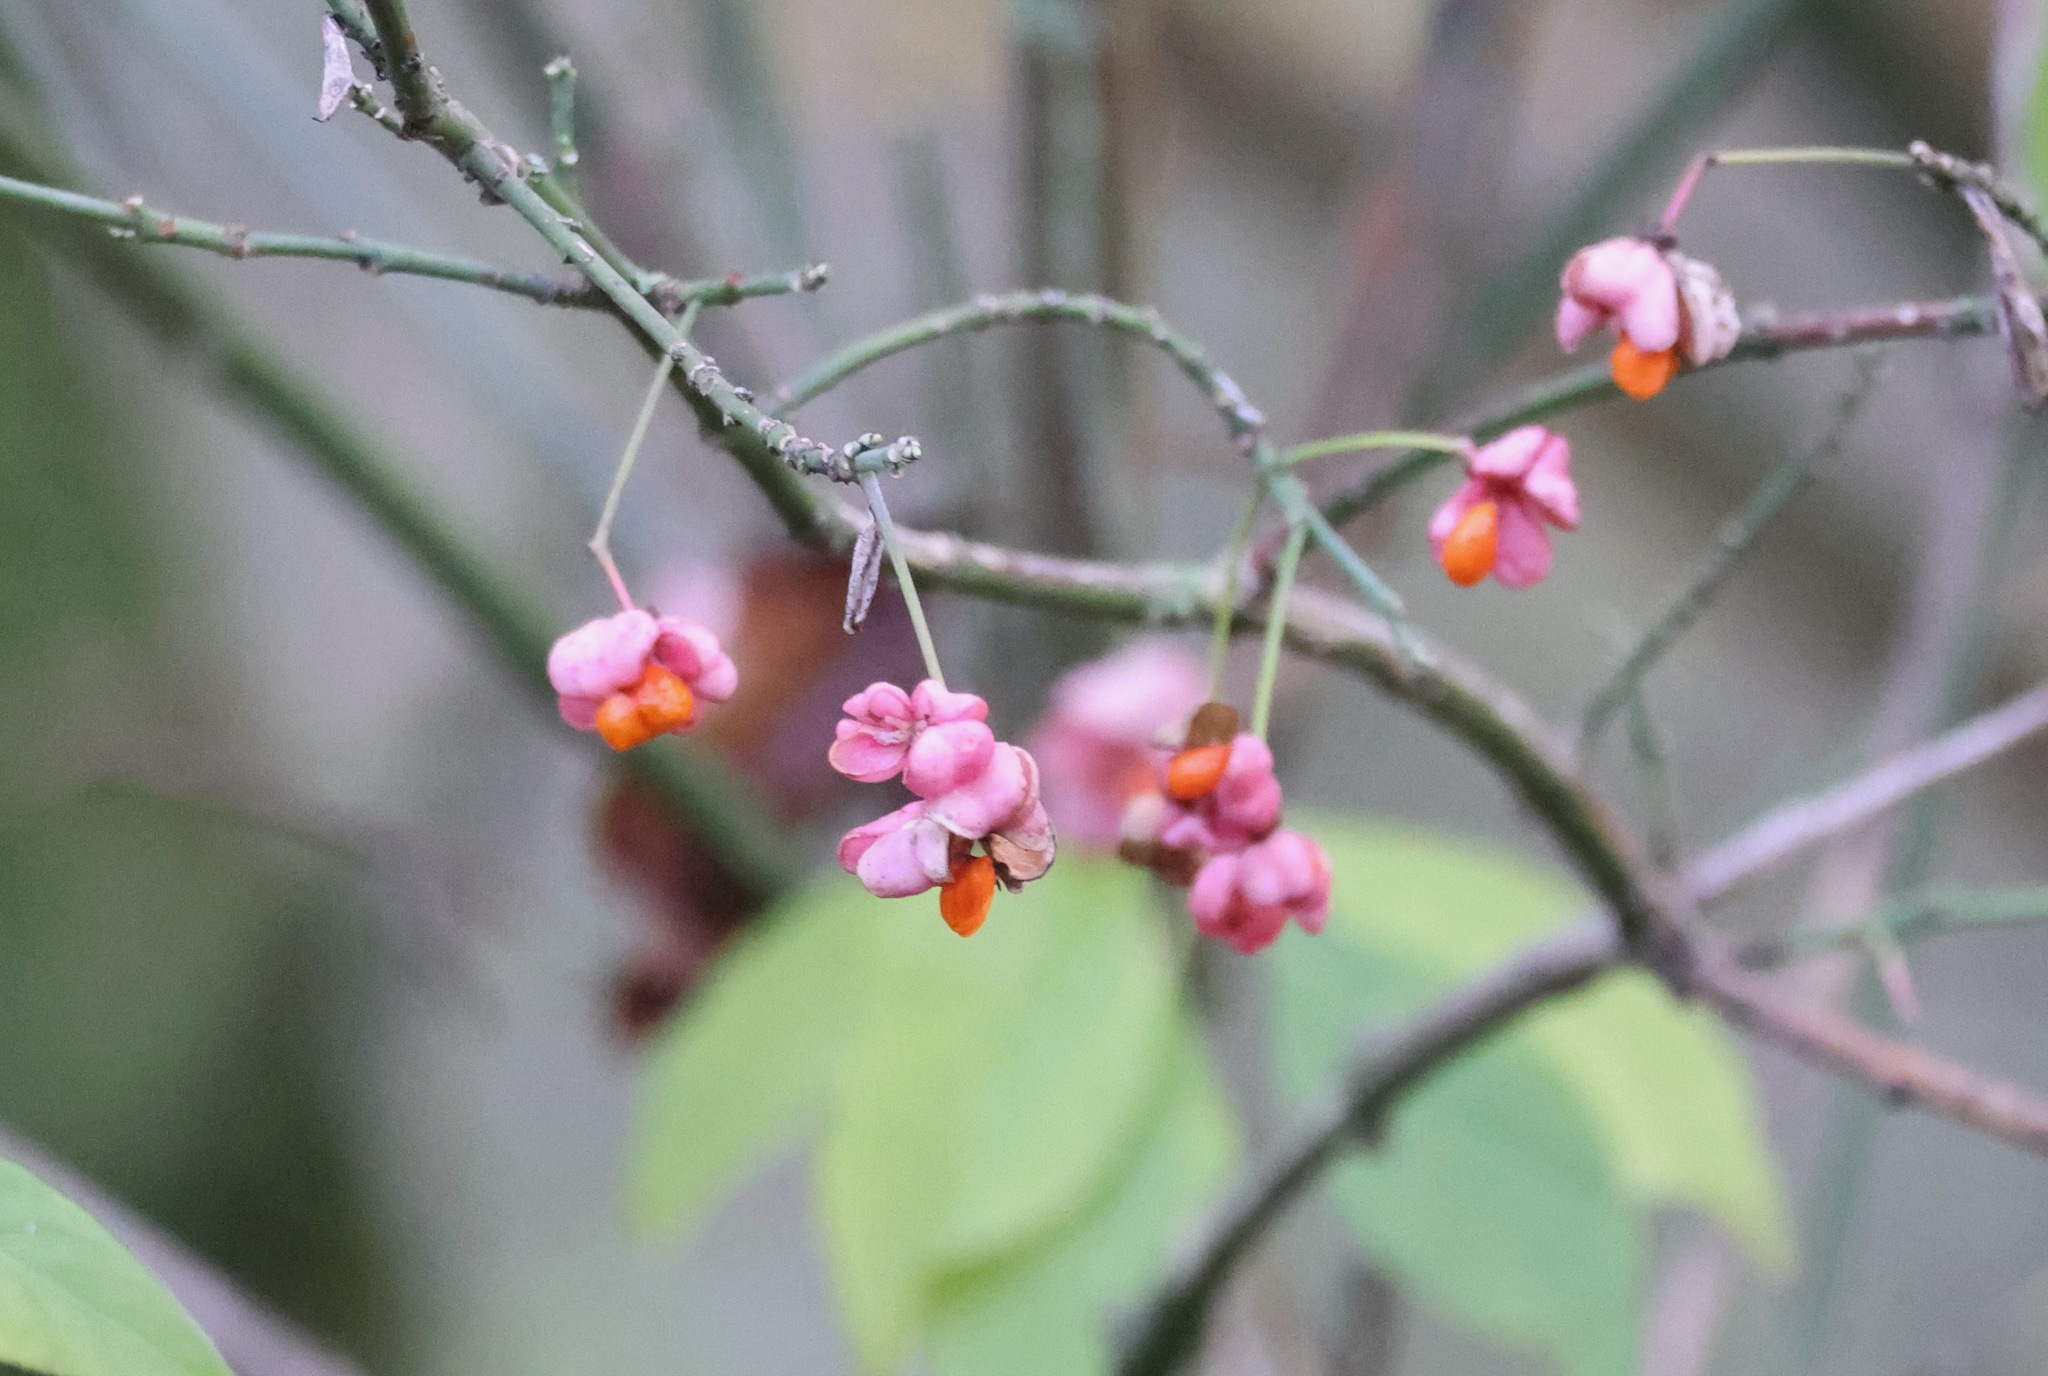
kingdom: Plantae
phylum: Tracheophyta
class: Magnoliopsida
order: Celastrales
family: Celastraceae
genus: Euonymus
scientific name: Euonymus europaeus
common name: Spindle
